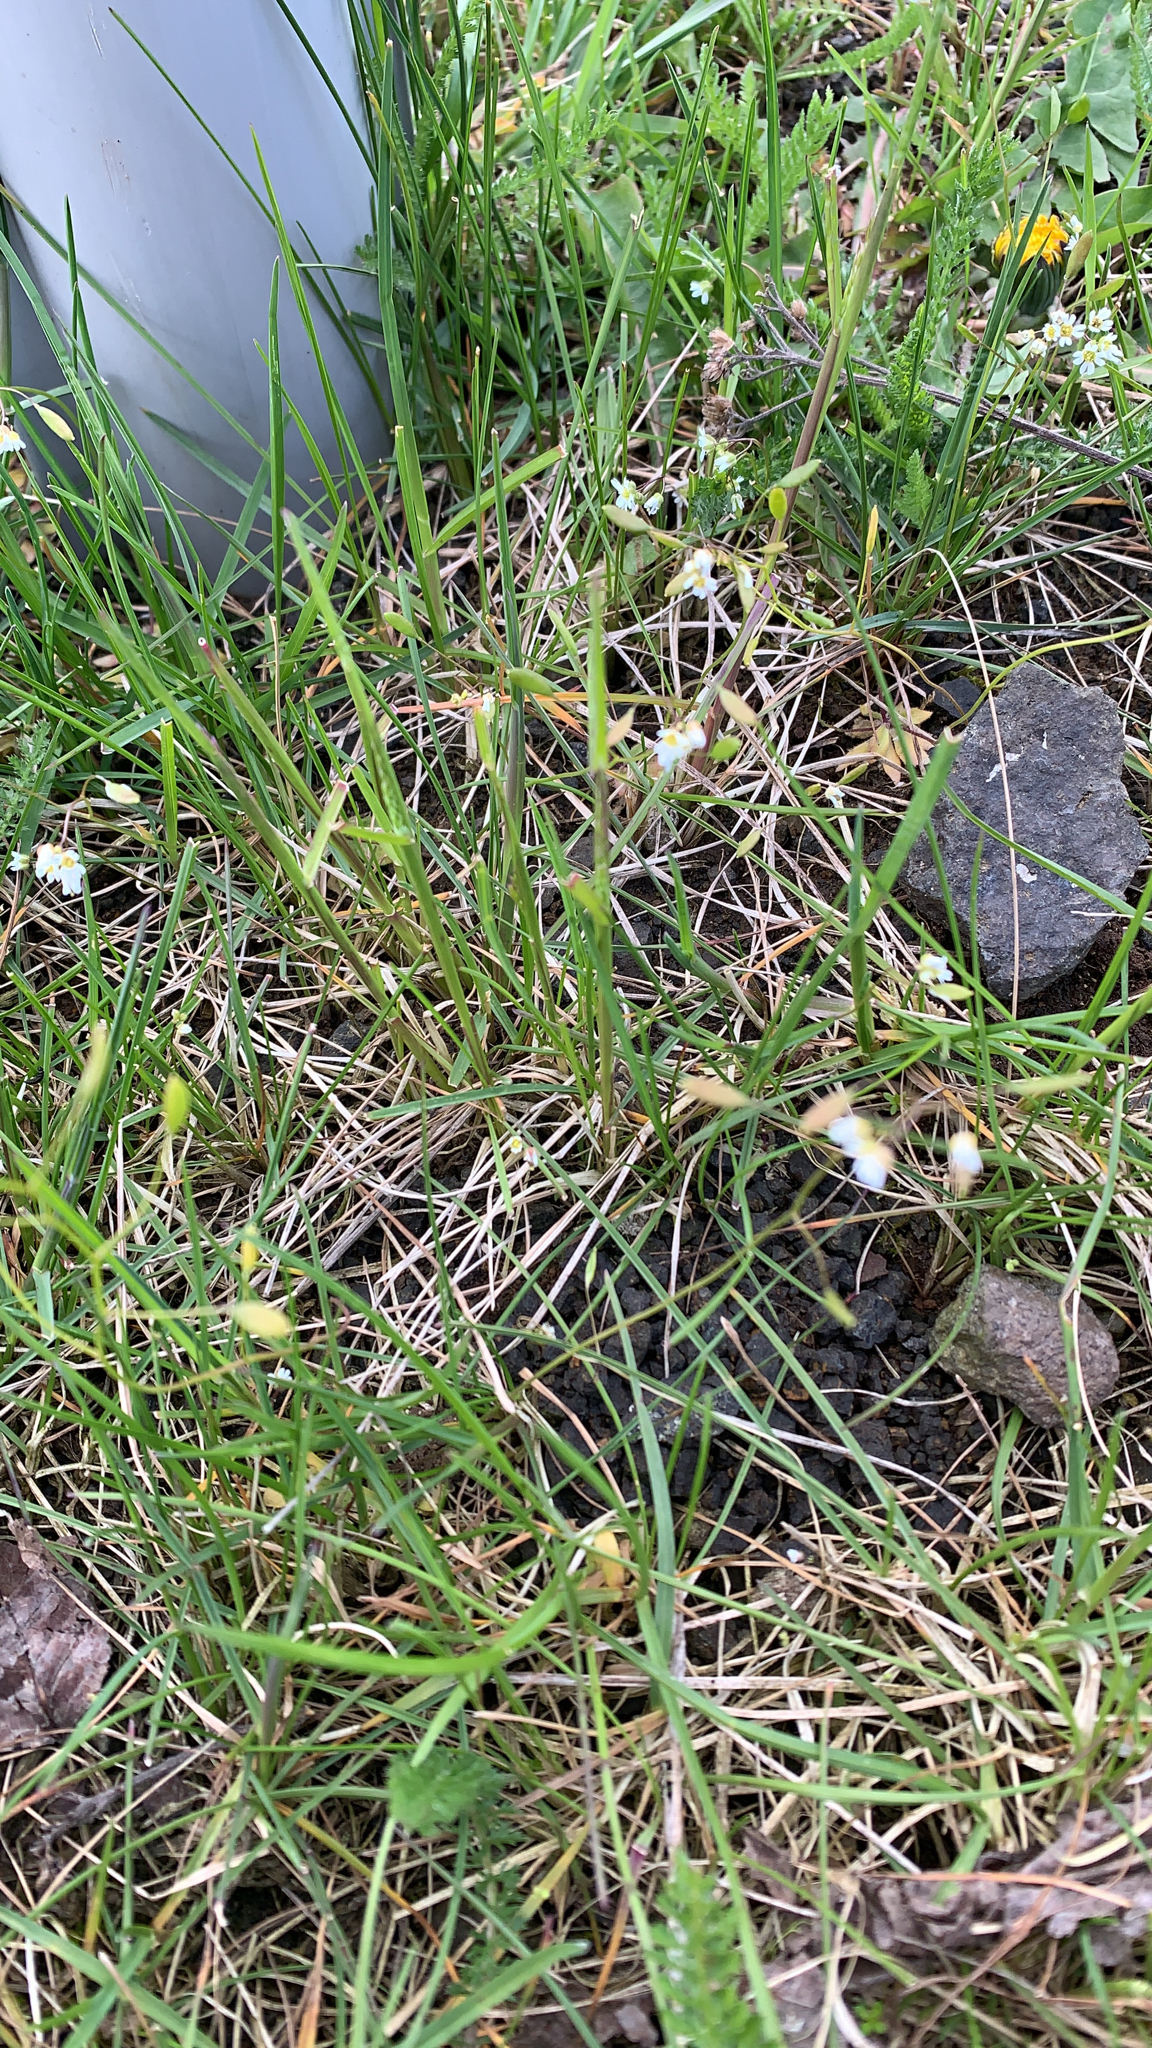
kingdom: Plantae
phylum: Tracheophyta
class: Magnoliopsida
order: Brassicales
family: Brassicaceae
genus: Draba
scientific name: Draba verna
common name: Spring draba
